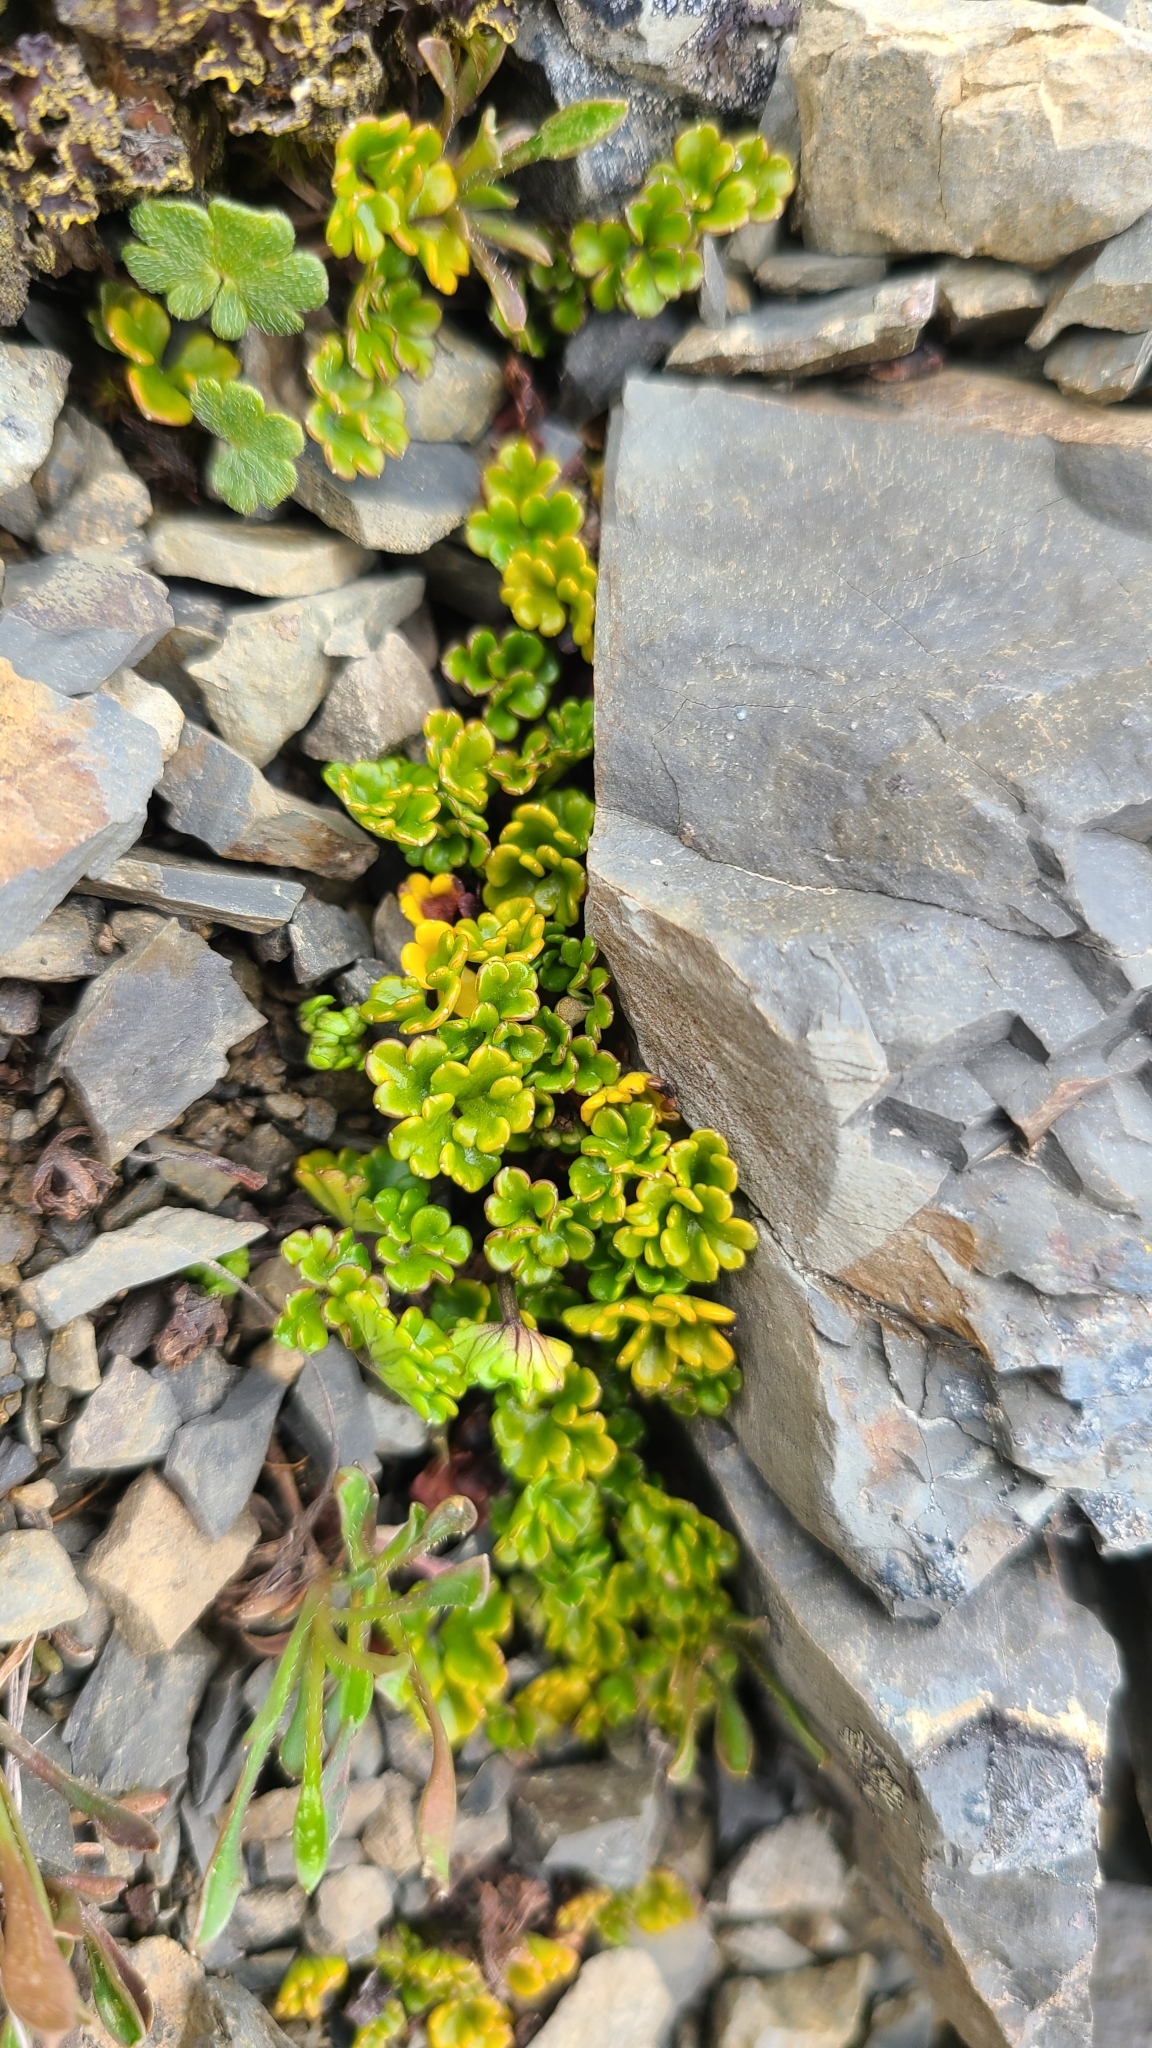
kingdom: Plantae
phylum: Tracheophyta
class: Magnoliopsida
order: Apiales
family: Apiaceae
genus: Azorella
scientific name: Azorella hydrocotyloides
